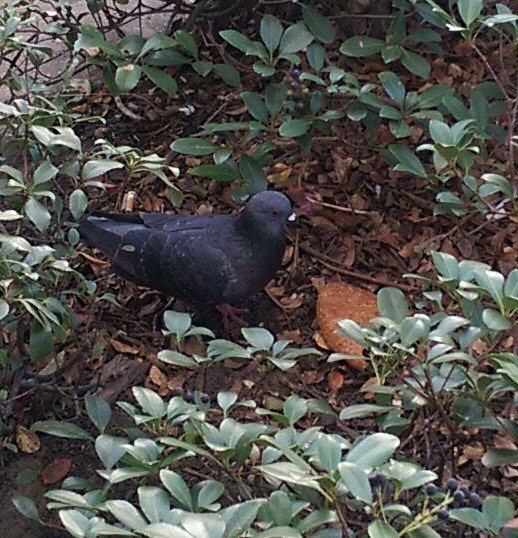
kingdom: Animalia
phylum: Chordata
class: Aves
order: Columbiformes
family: Columbidae
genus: Columba
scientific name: Columba livia
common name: Rock pigeon
